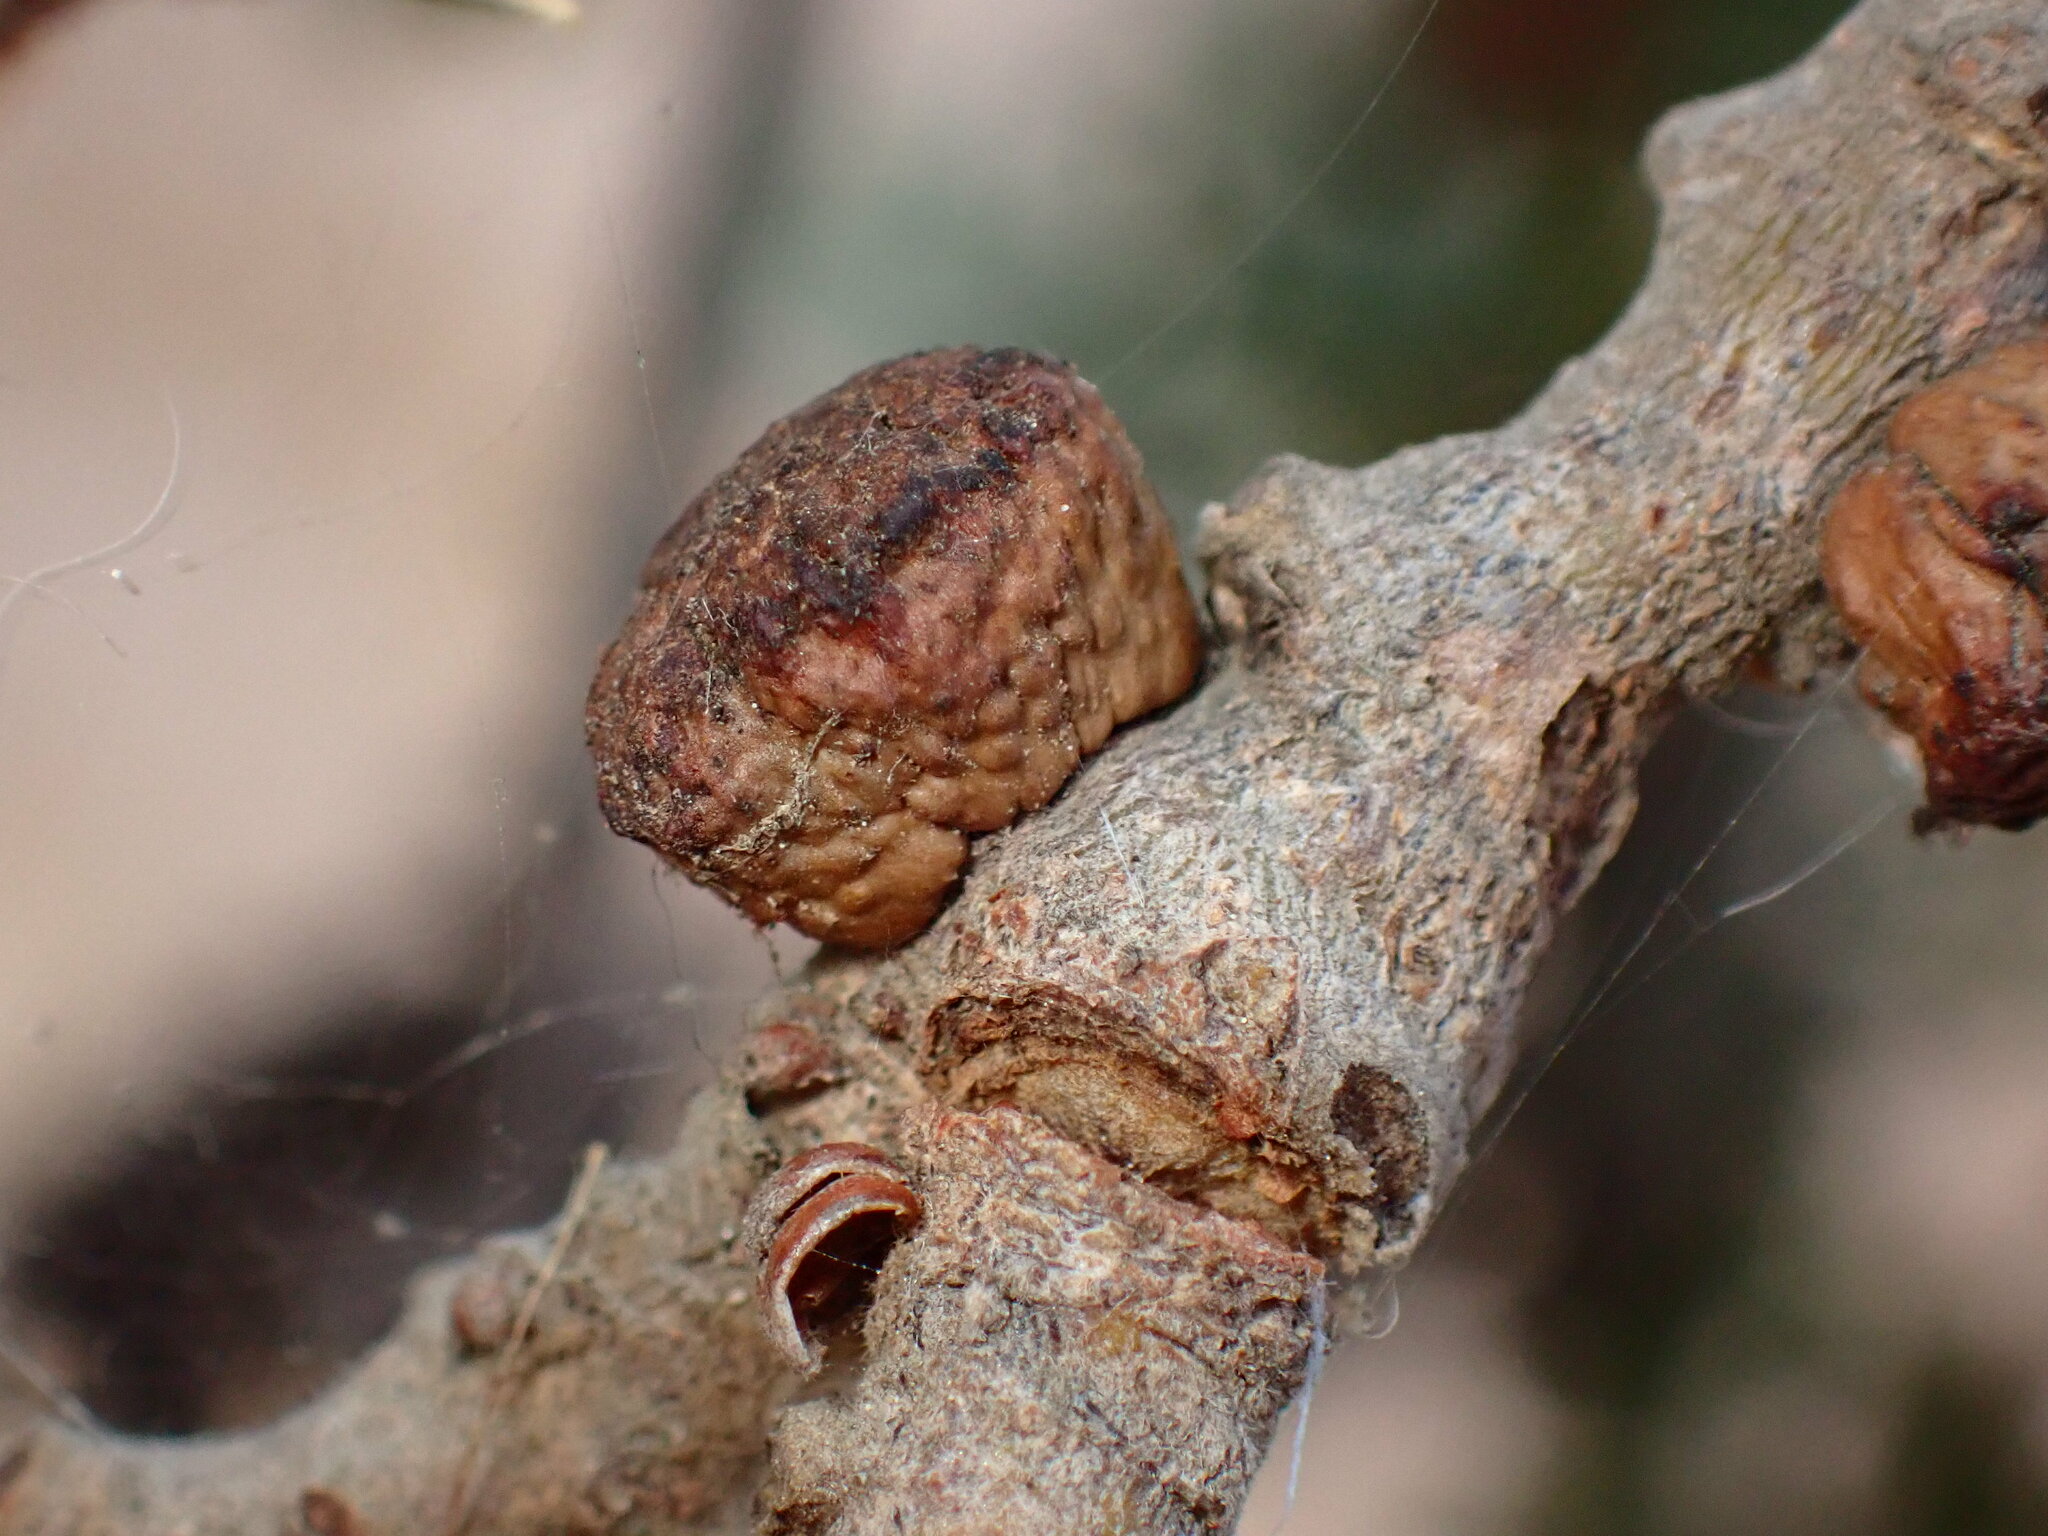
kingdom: Animalia
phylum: Arthropoda
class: Insecta
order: Hymenoptera
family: Cynipidae
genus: Disholcaspis
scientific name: Disholcaspis
